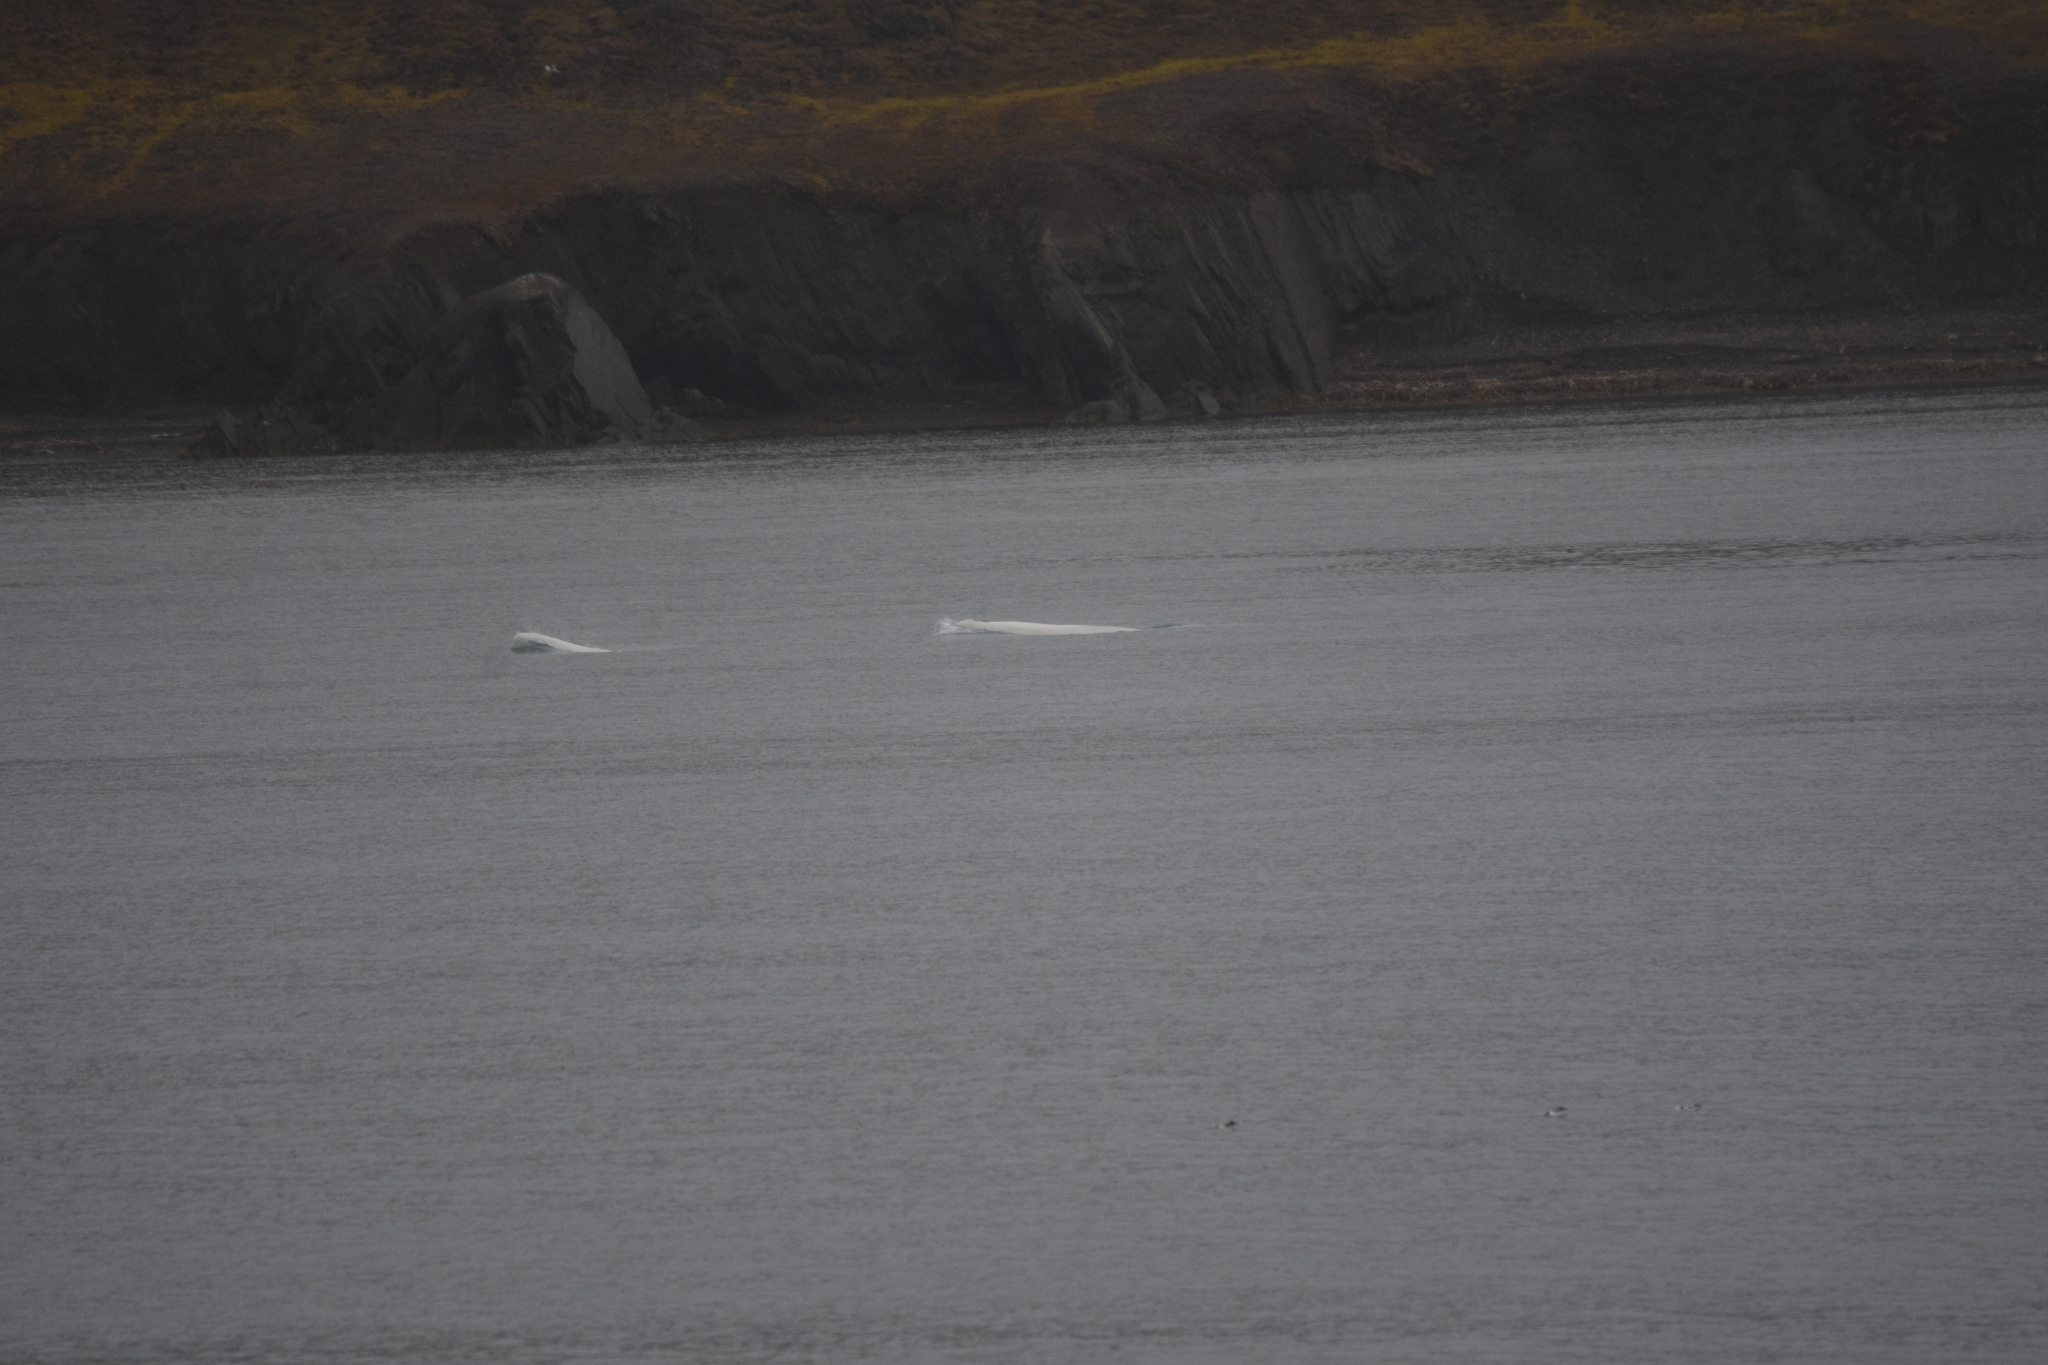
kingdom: Animalia
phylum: Chordata
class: Mammalia
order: Cetacea
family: Monodontidae
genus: Delphinapterus
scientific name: Delphinapterus leucas
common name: Beluga
